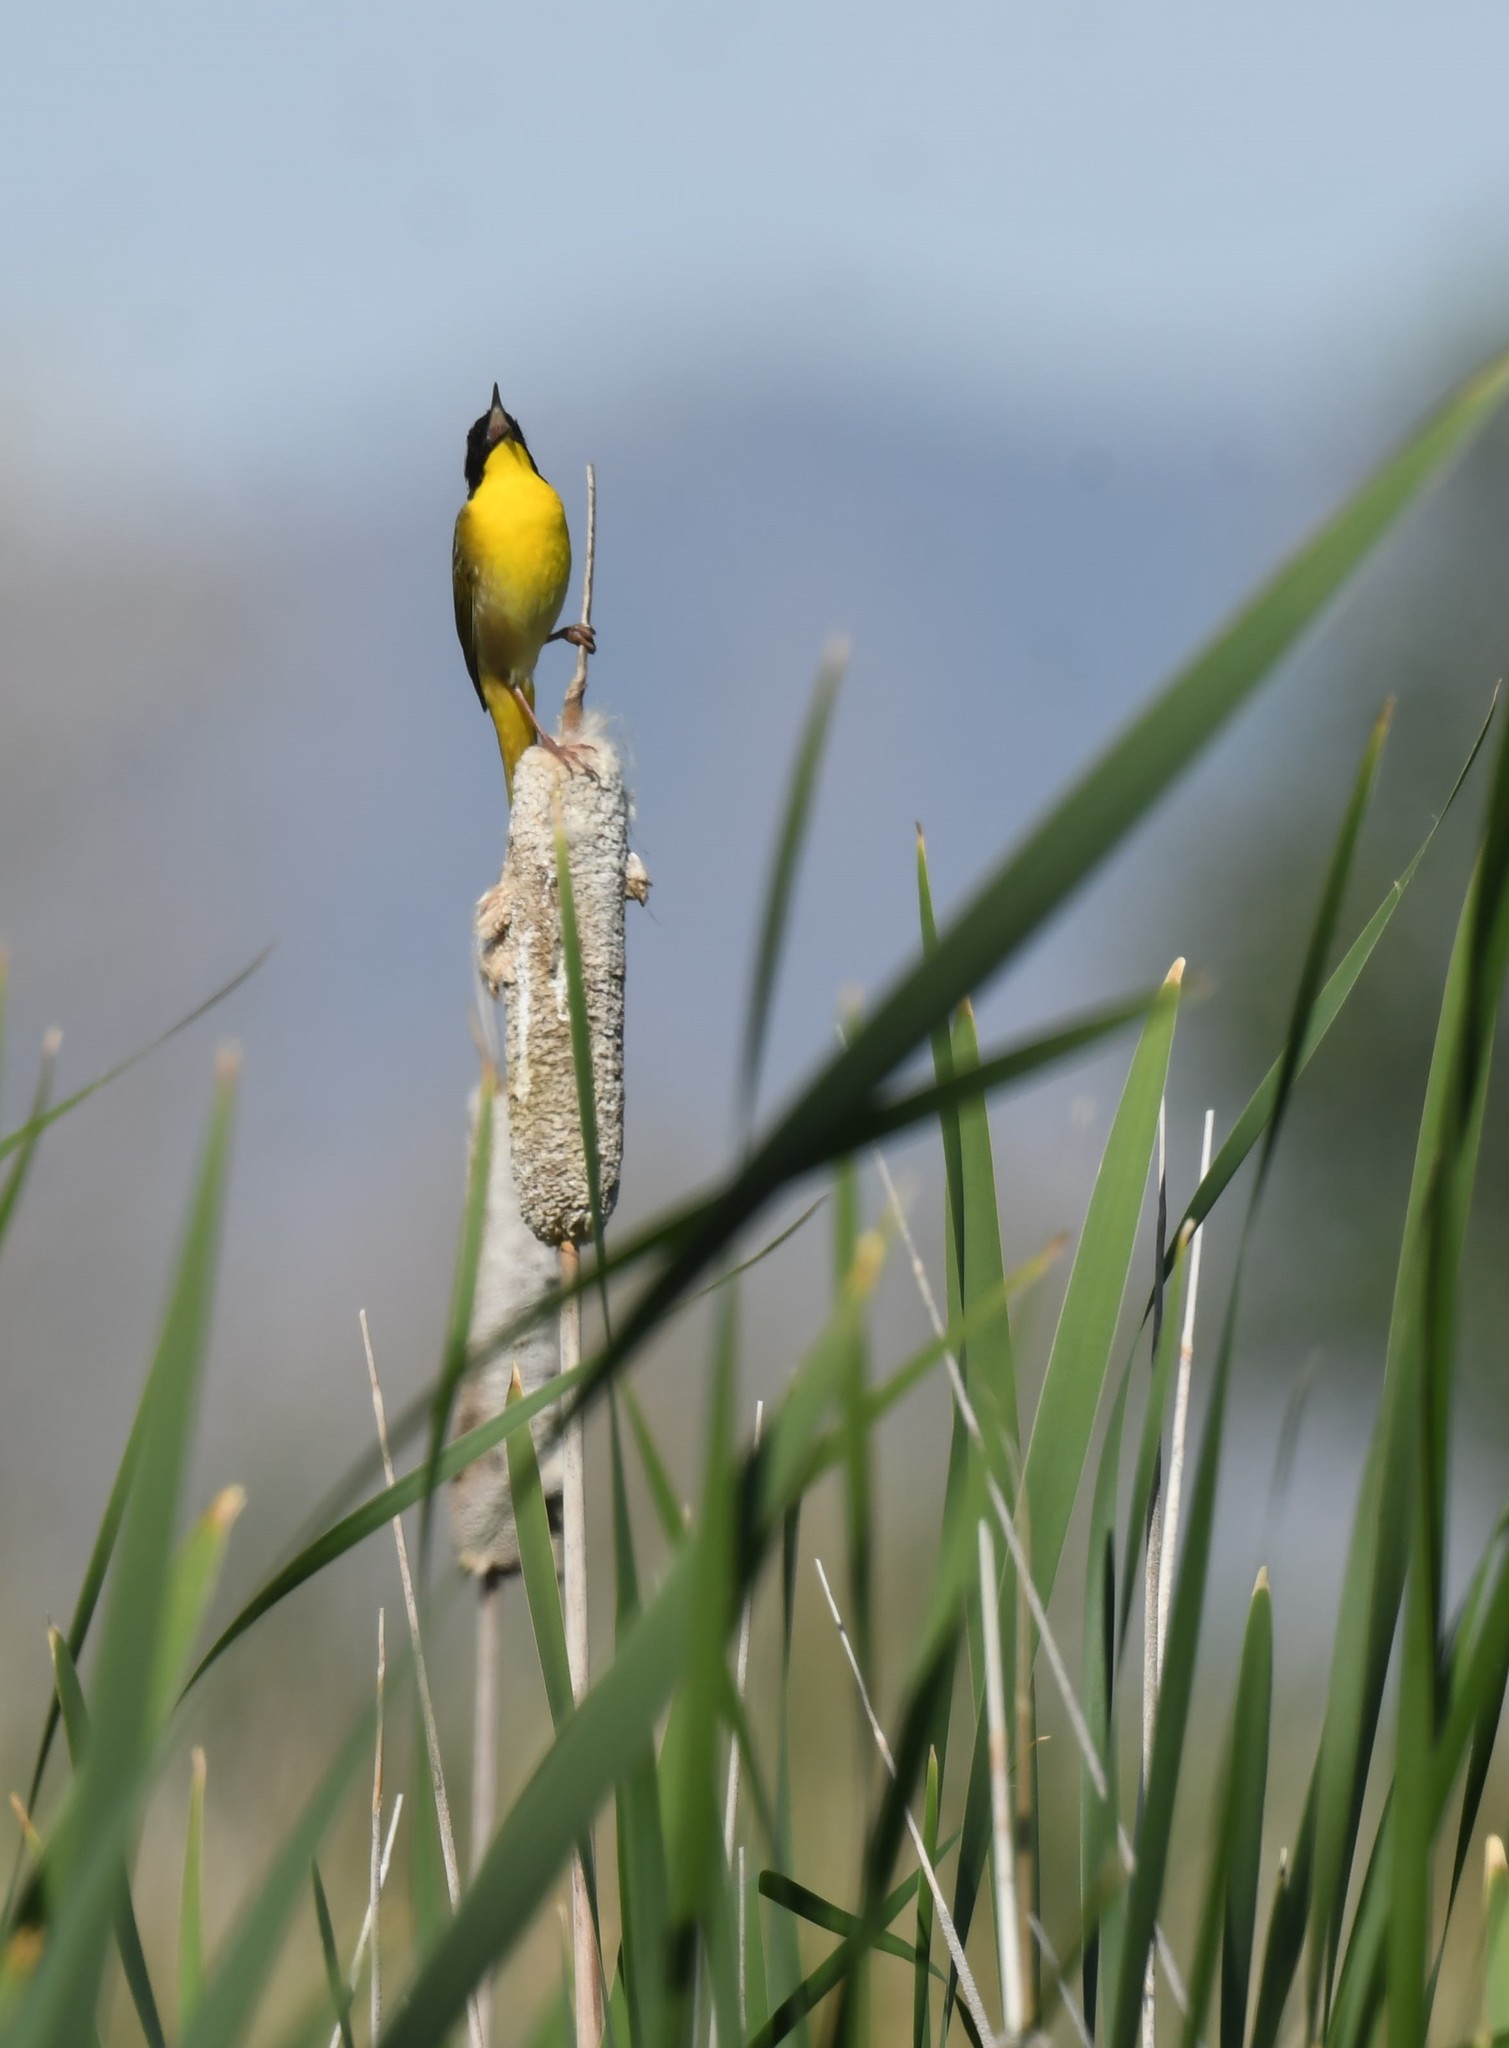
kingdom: Animalia
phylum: Chordata
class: Aves
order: Passeriformes
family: Parulidae
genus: Geothlypis
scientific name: Geothlypis trichas
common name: Common yellowthroat
